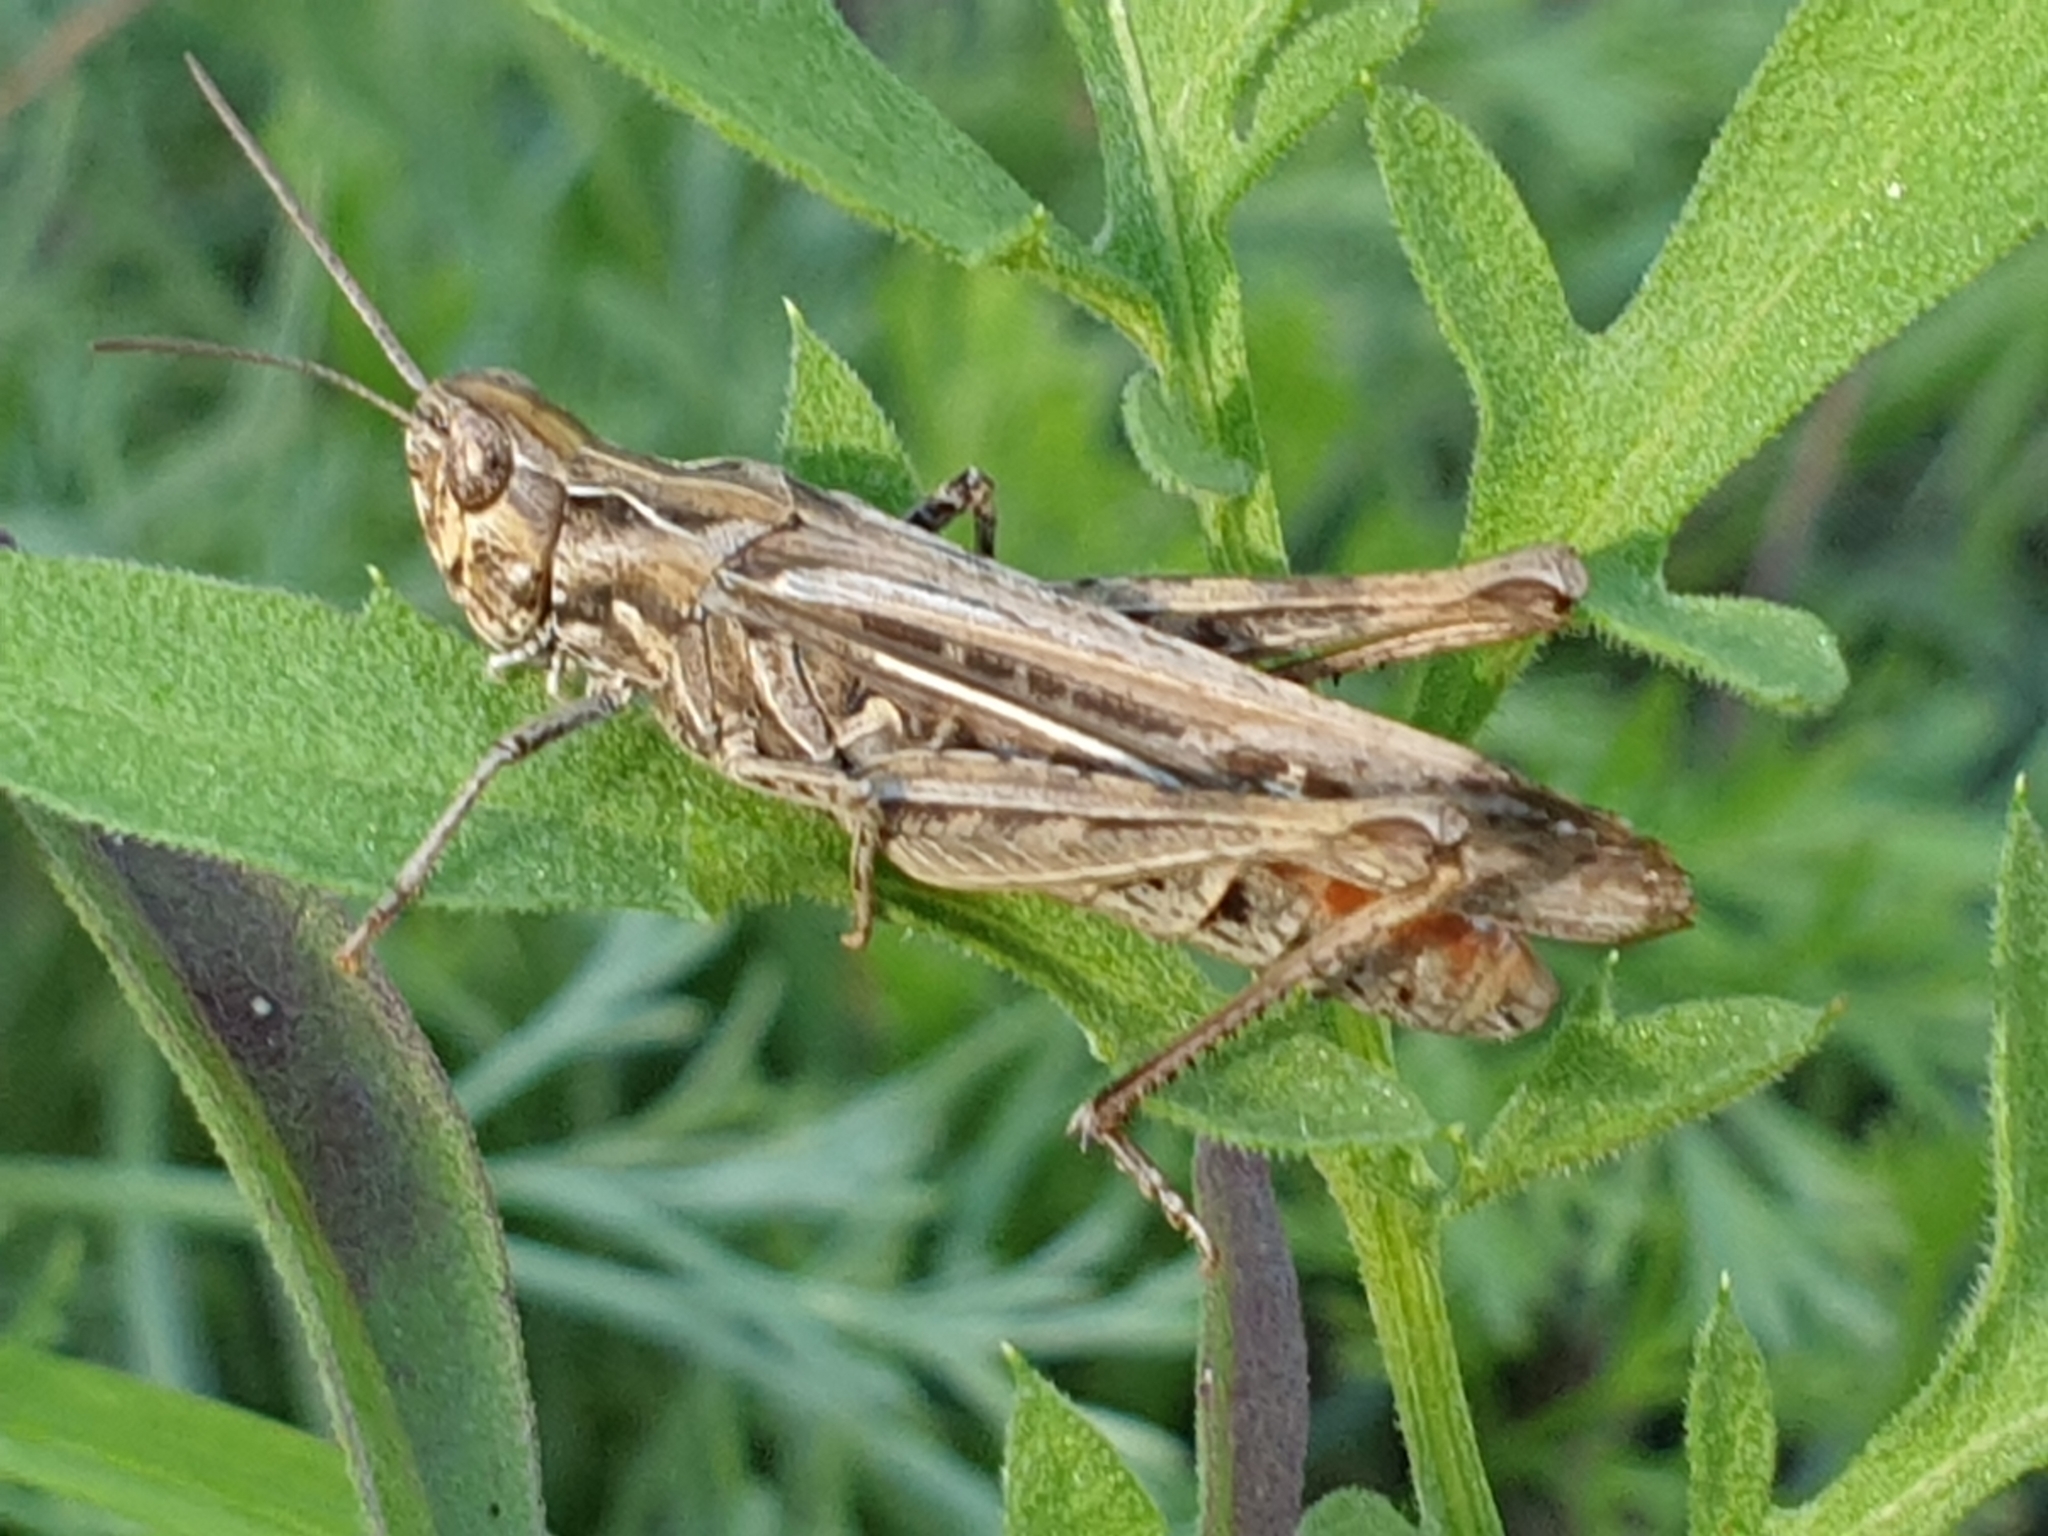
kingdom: Animalia
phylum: Arthropoda
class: Insecta
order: Orthoptera
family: Acrididae
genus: Chorthippus
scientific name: Chorthippus brunneus
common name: Field grasshopper
